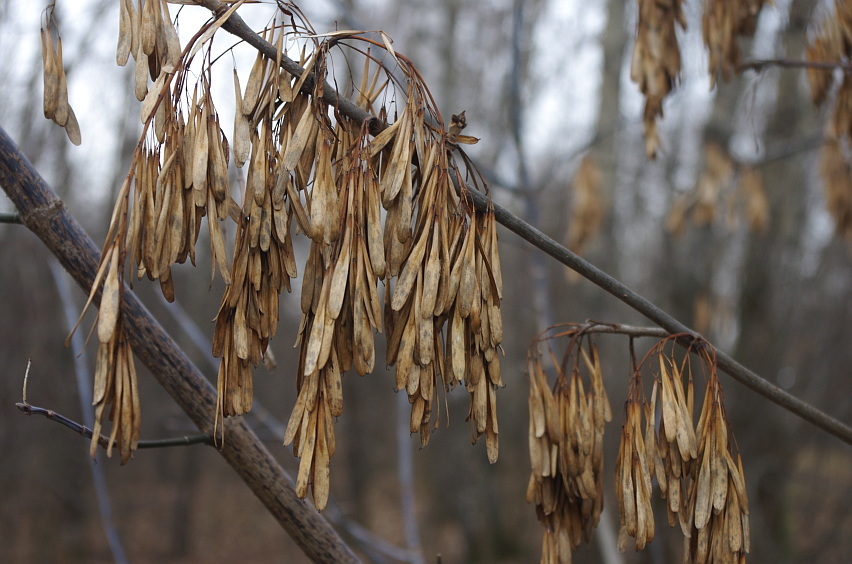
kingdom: Plantae
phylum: Tracheophyta
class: Magnoliopsida
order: Lamiales
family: Oleaceae
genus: Fraxinus
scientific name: Fraxinus pennsylvanica
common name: Green ash
